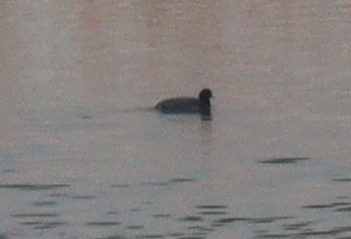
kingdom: Animalia
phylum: Chordata
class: Aves
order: Gruiformes
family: Rallidae
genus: Fulica
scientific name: Fulica atra
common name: Eurasian coot
